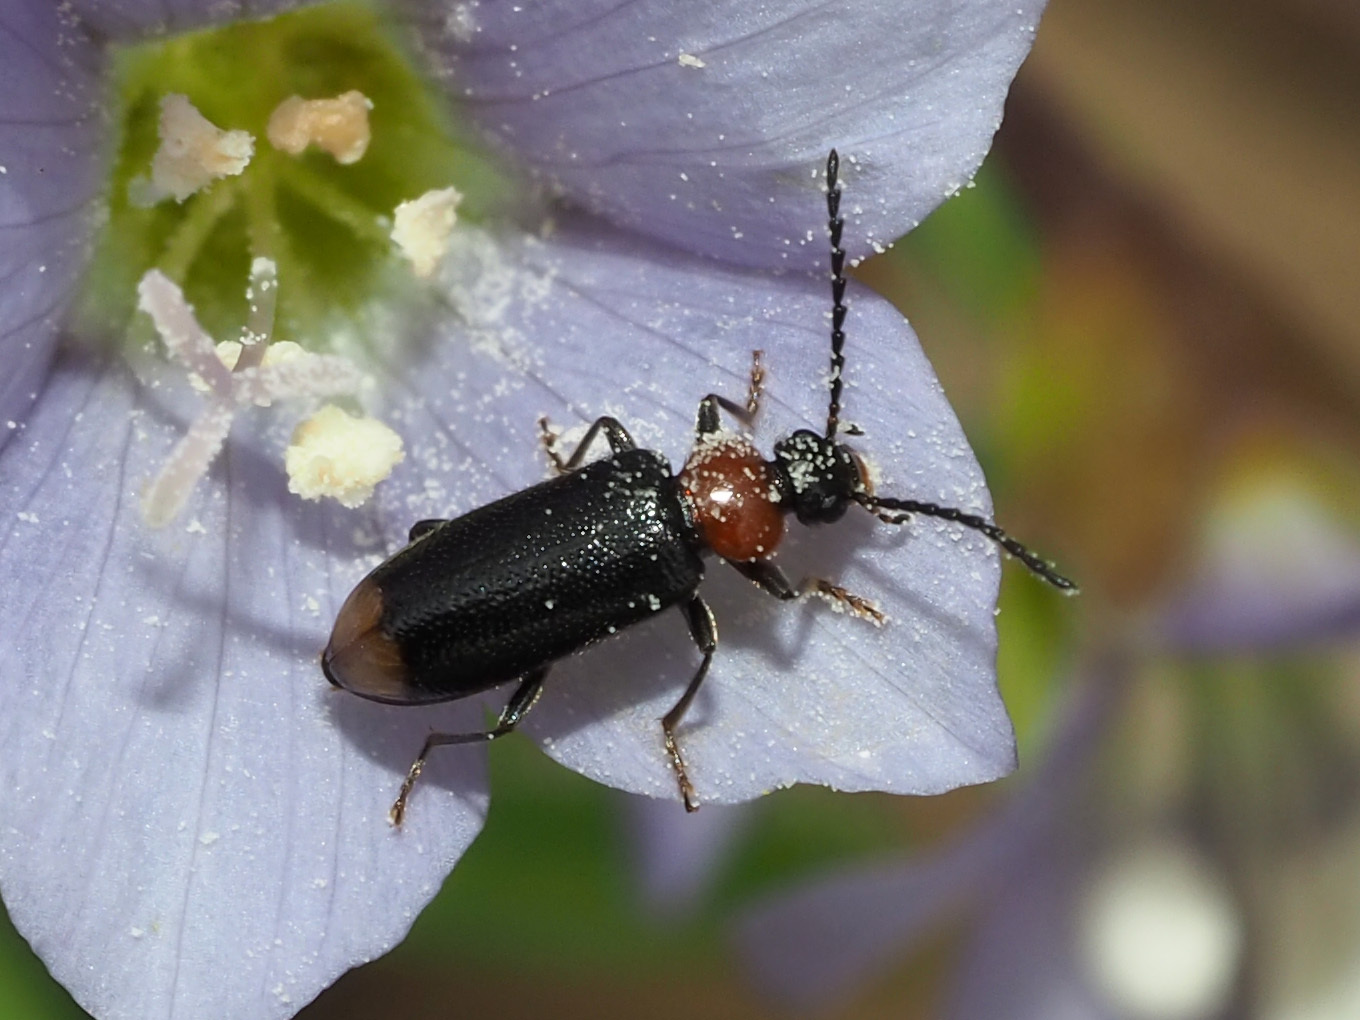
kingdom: Animalia
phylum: Arthropoda
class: Insecta
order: Coleoptera
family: Pyrochroidae
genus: Pedilus
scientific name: Pedilus terminalis
